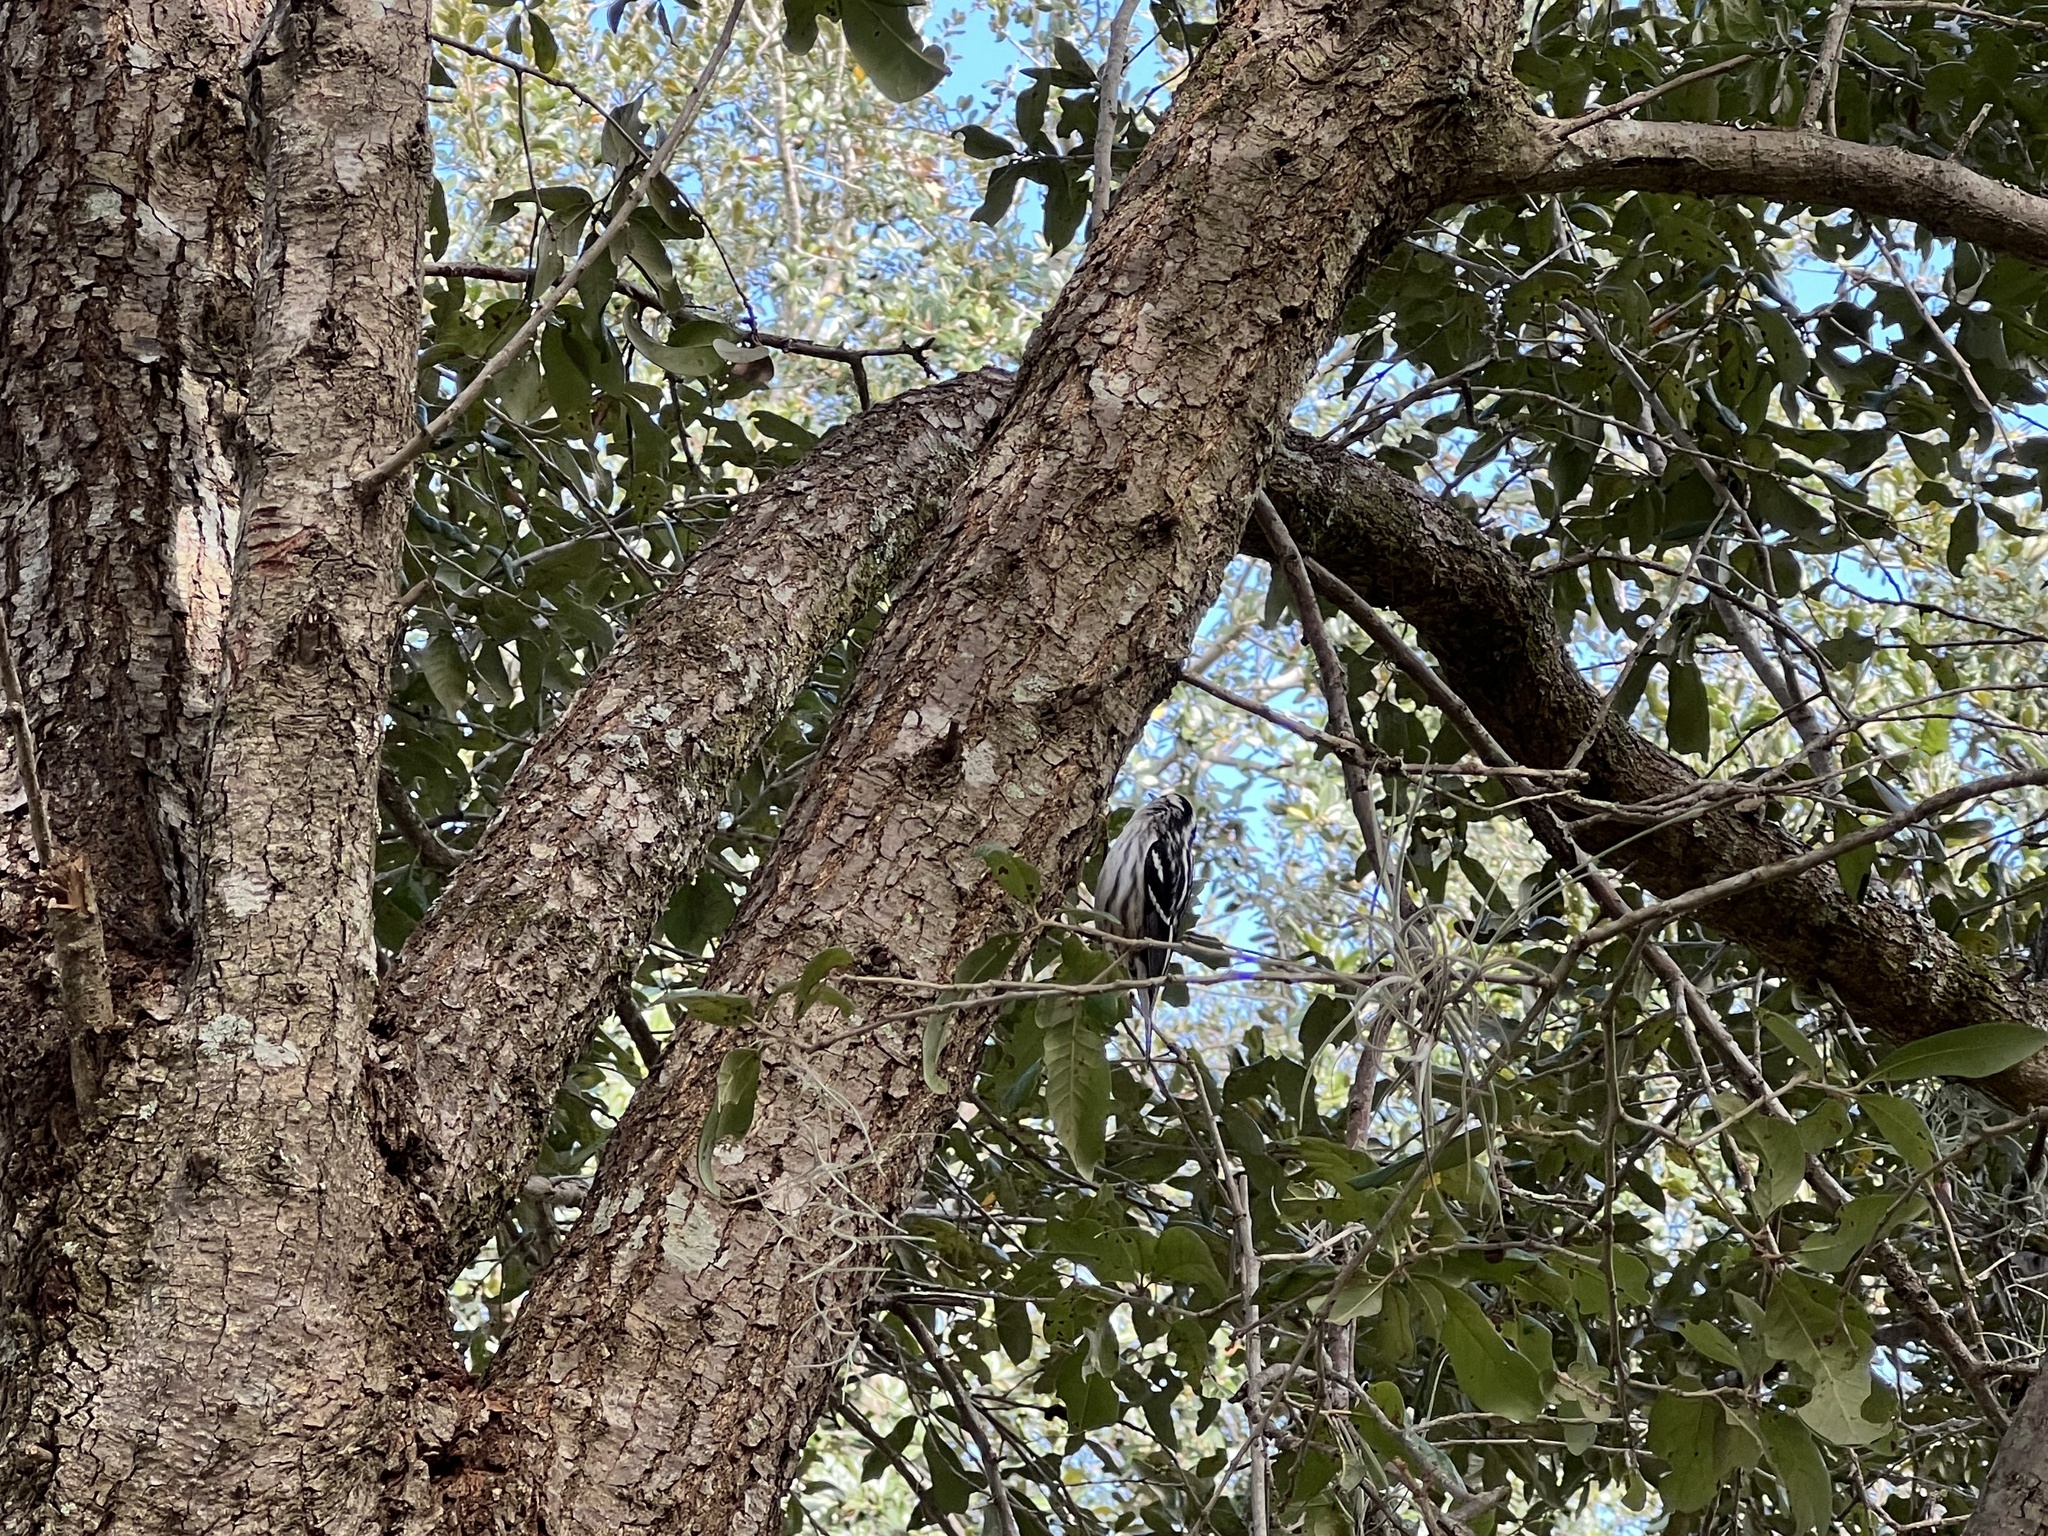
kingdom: Animalia
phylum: Chordata
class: Aves
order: Passeriformes
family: Parulidae
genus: Mniotilta
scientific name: Mniotilta varia
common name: Black-and-white warbler
